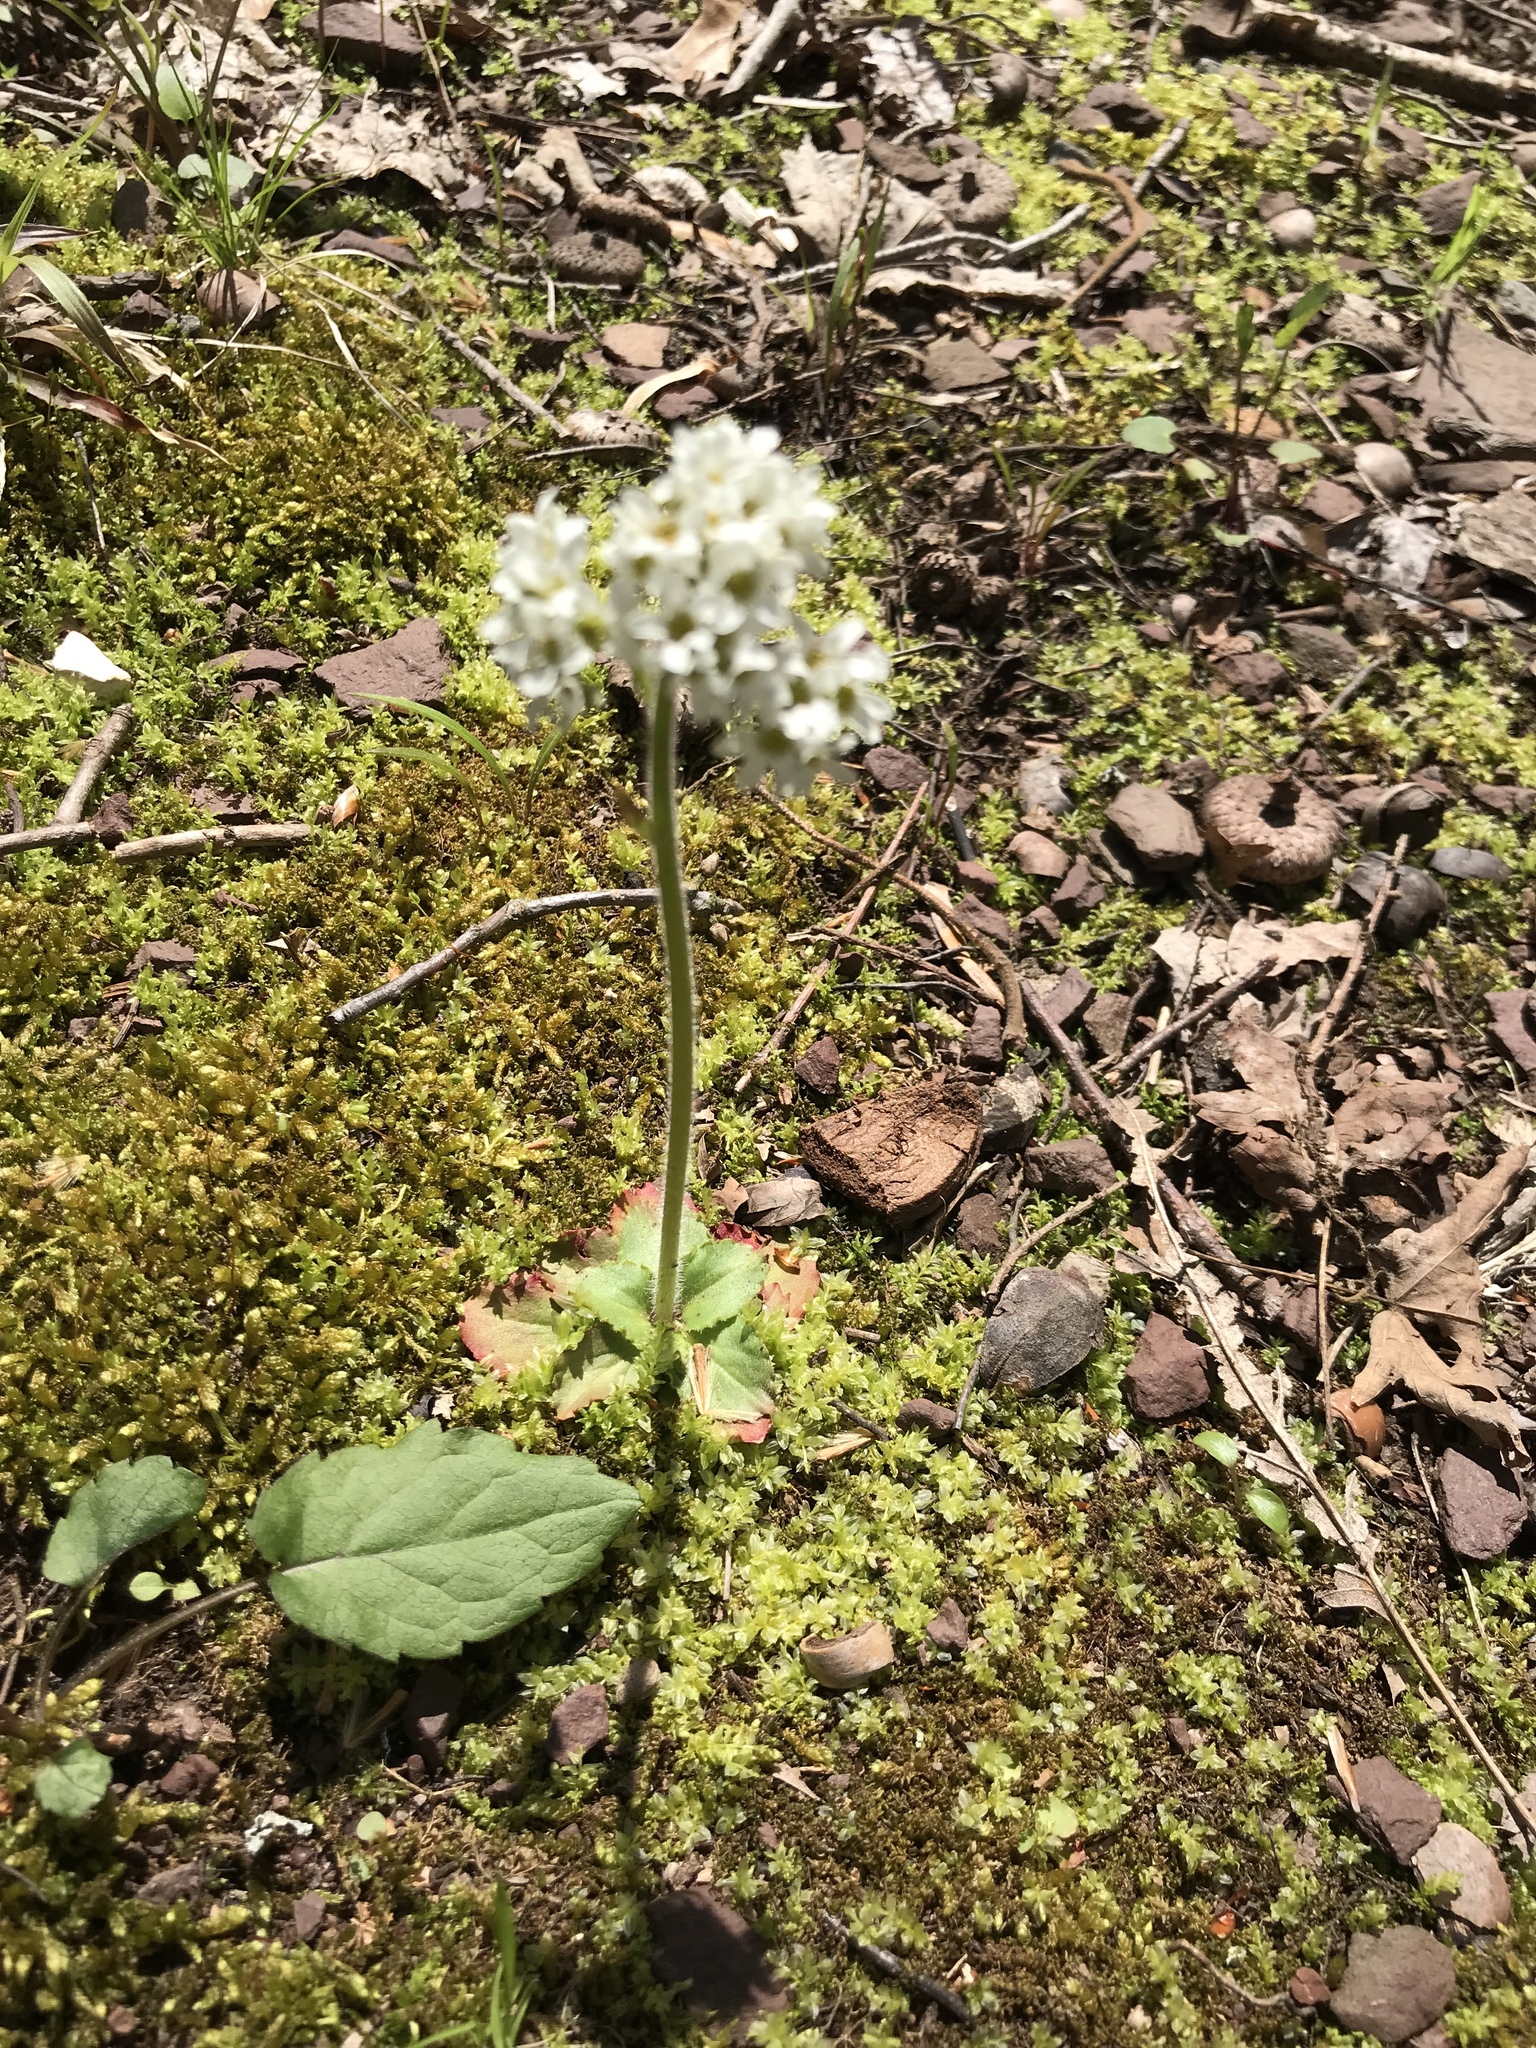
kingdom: Plantae
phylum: Tracheophyta
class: Magnoliopsida
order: Saxifragales
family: Saxifragaceae
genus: Micranthes
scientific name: Micranthes virginiensis
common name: Early saxifrage
